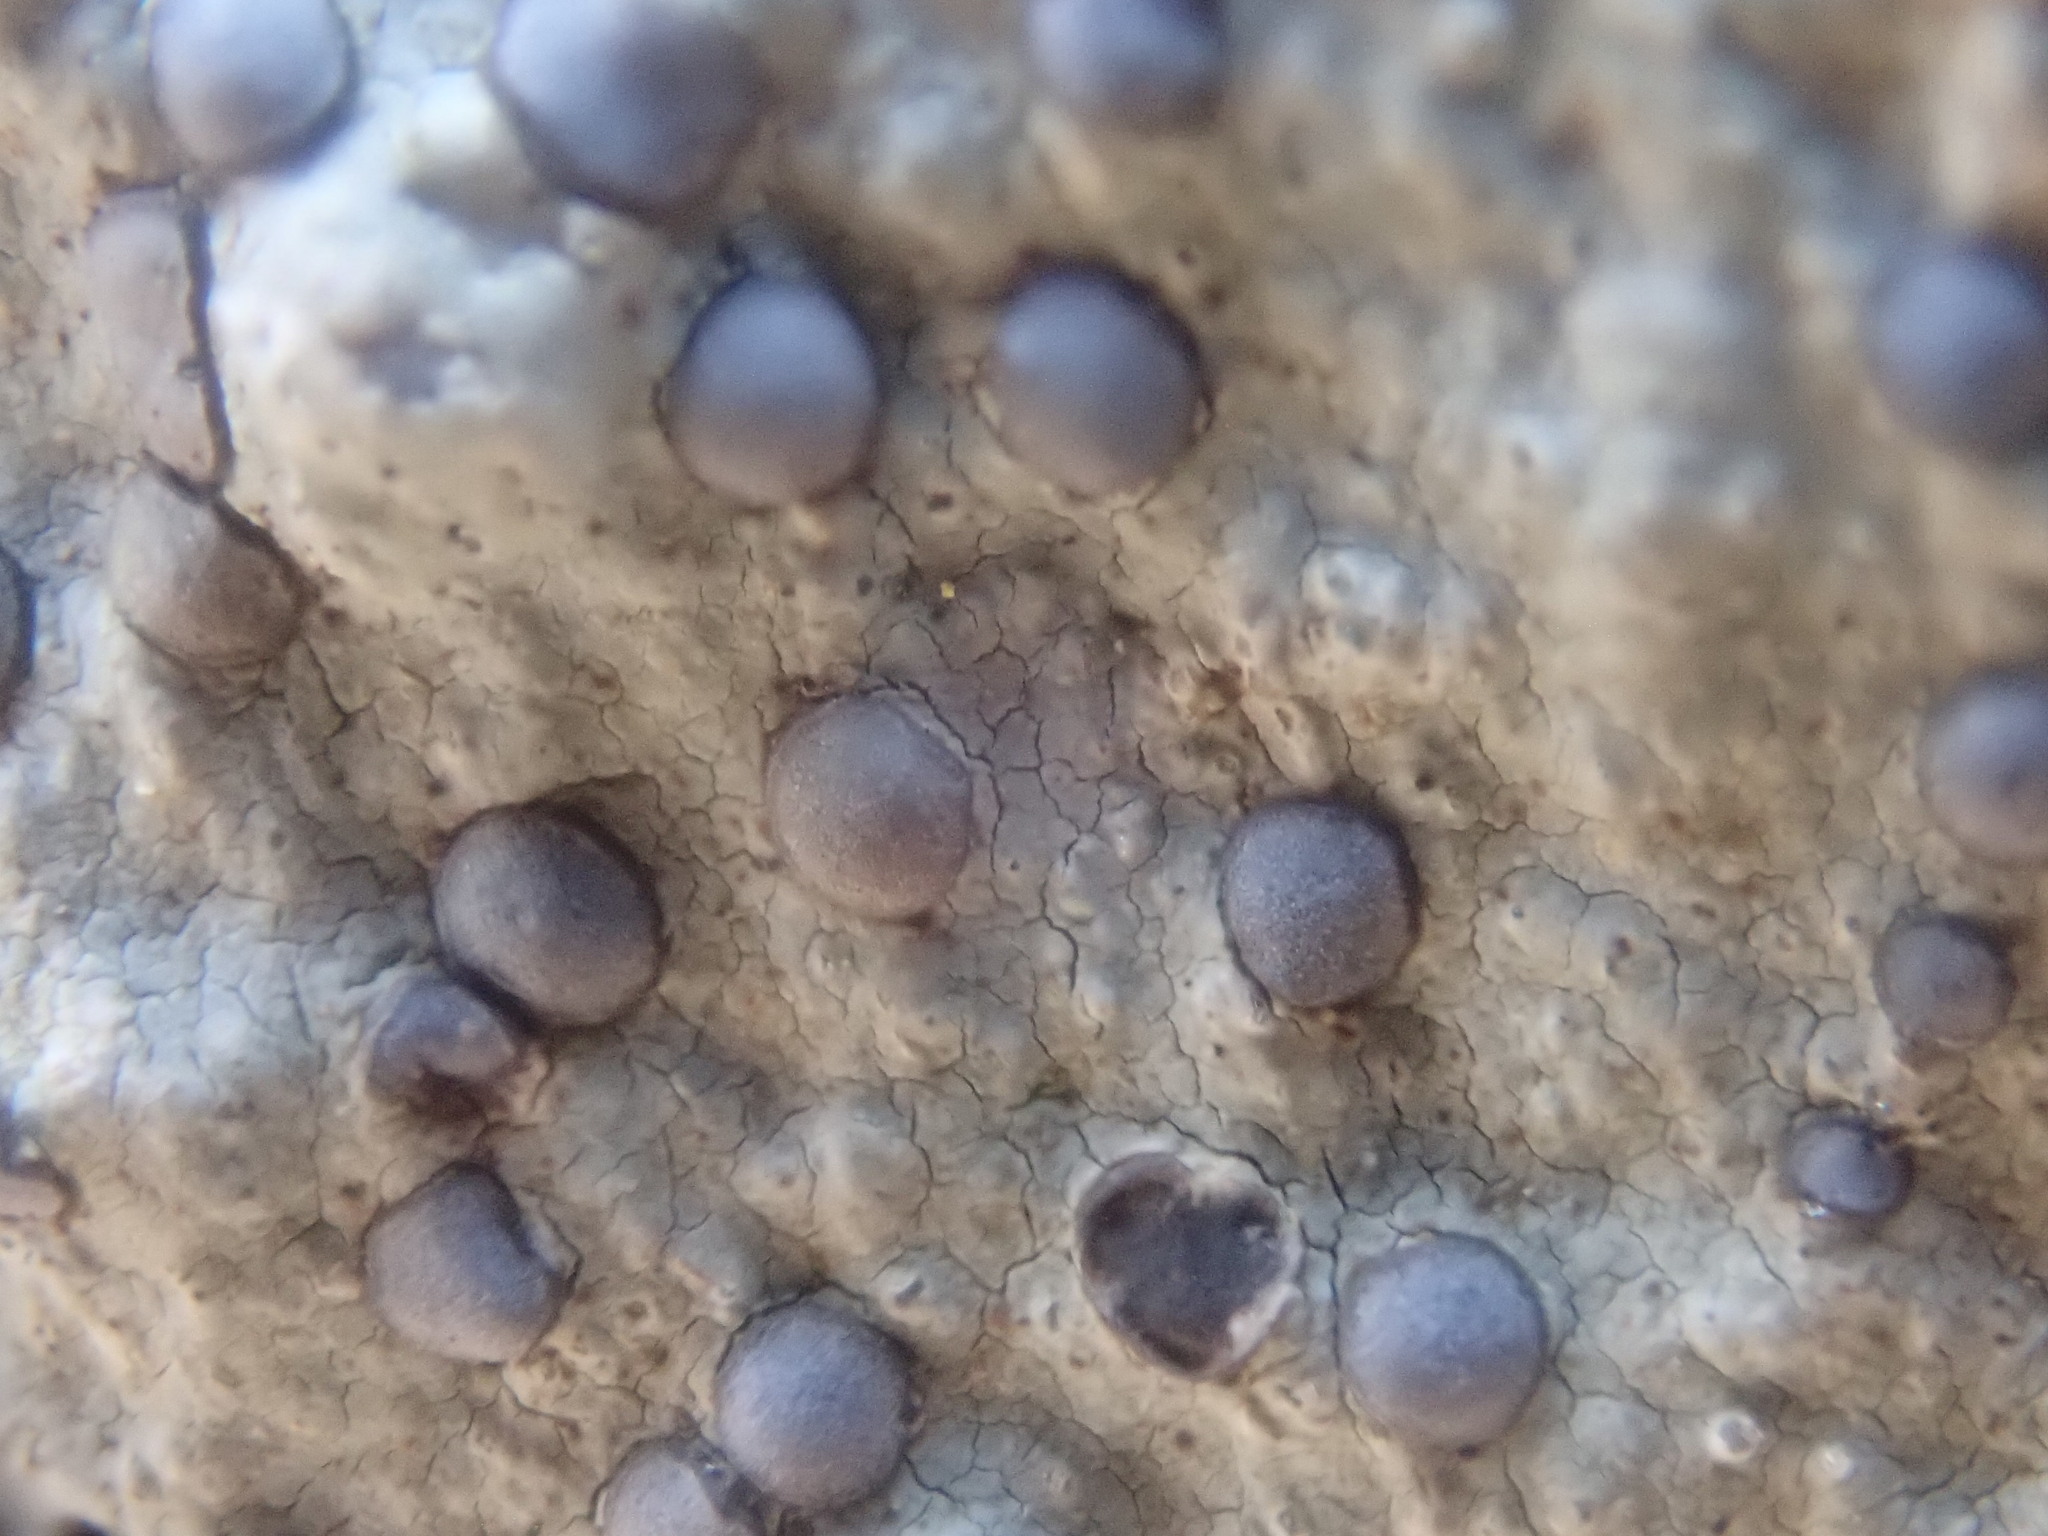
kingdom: Fungi
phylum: Ascomycota
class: Lecanoromycetes
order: Lecideales
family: Lecideaceae
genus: Porpidia
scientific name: Porpidia albocaerulescens
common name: Smokey-eyed boulder lichen
